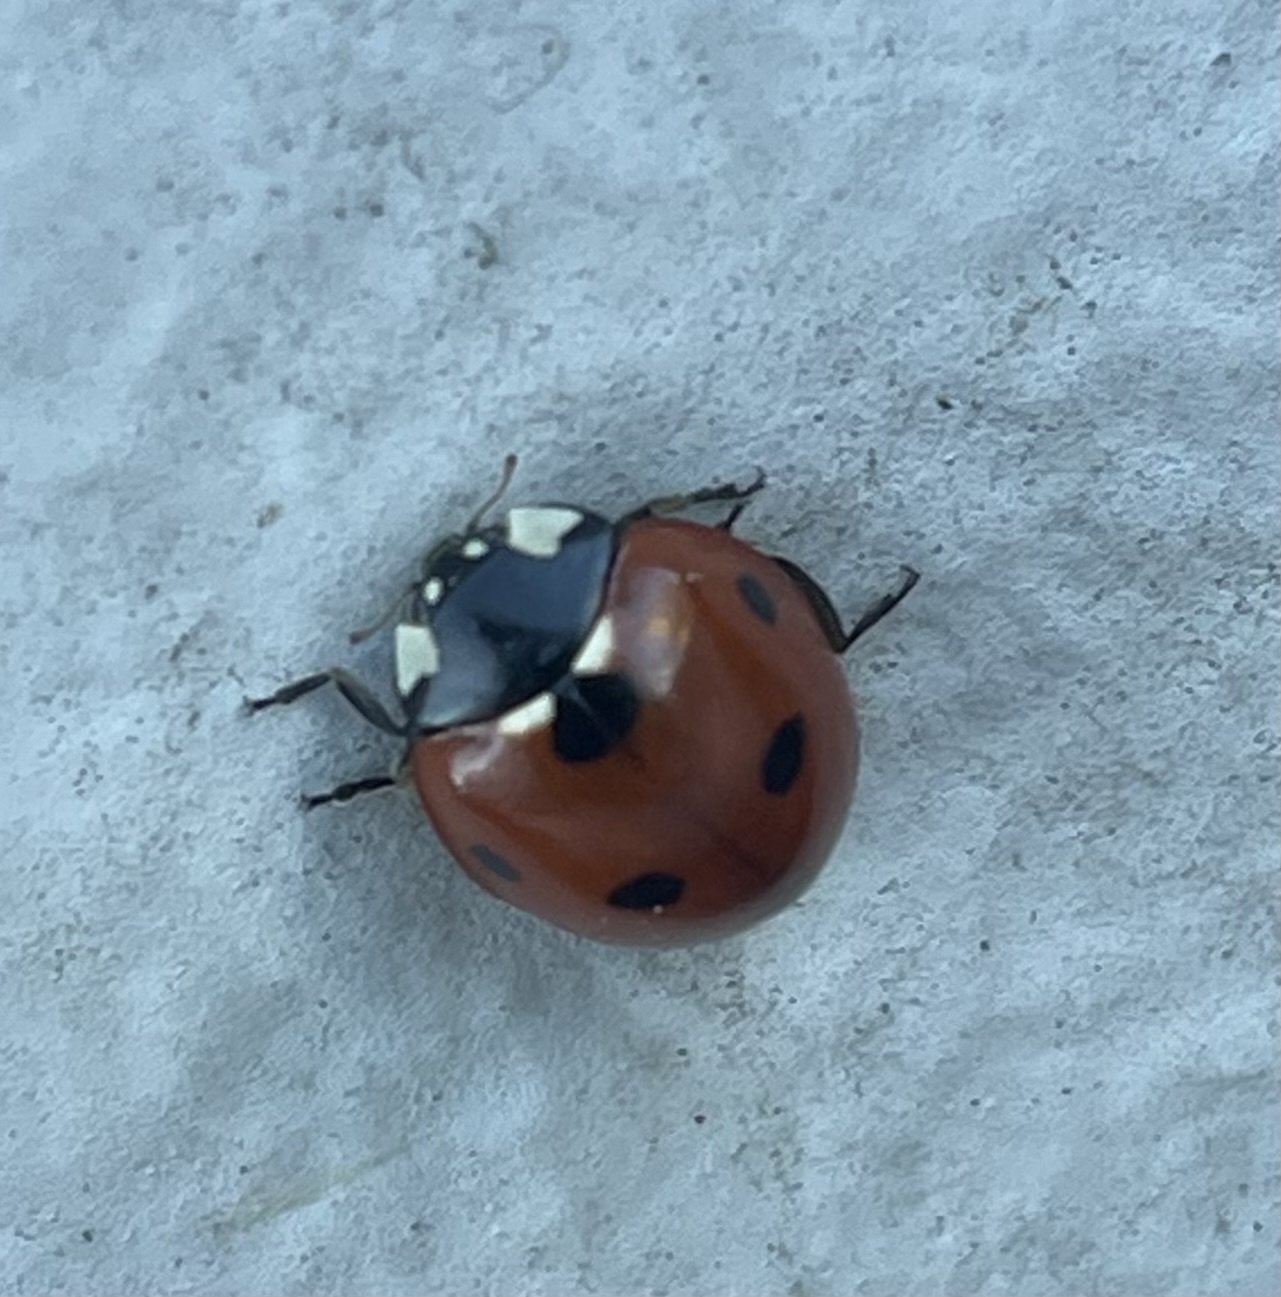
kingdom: Animalia
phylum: Arthropoda
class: Insecta
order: Coleoptera
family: Coccinellidae
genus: Coccinella
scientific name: Coccinella septempunctata
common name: Sevenspotted lady beetle
